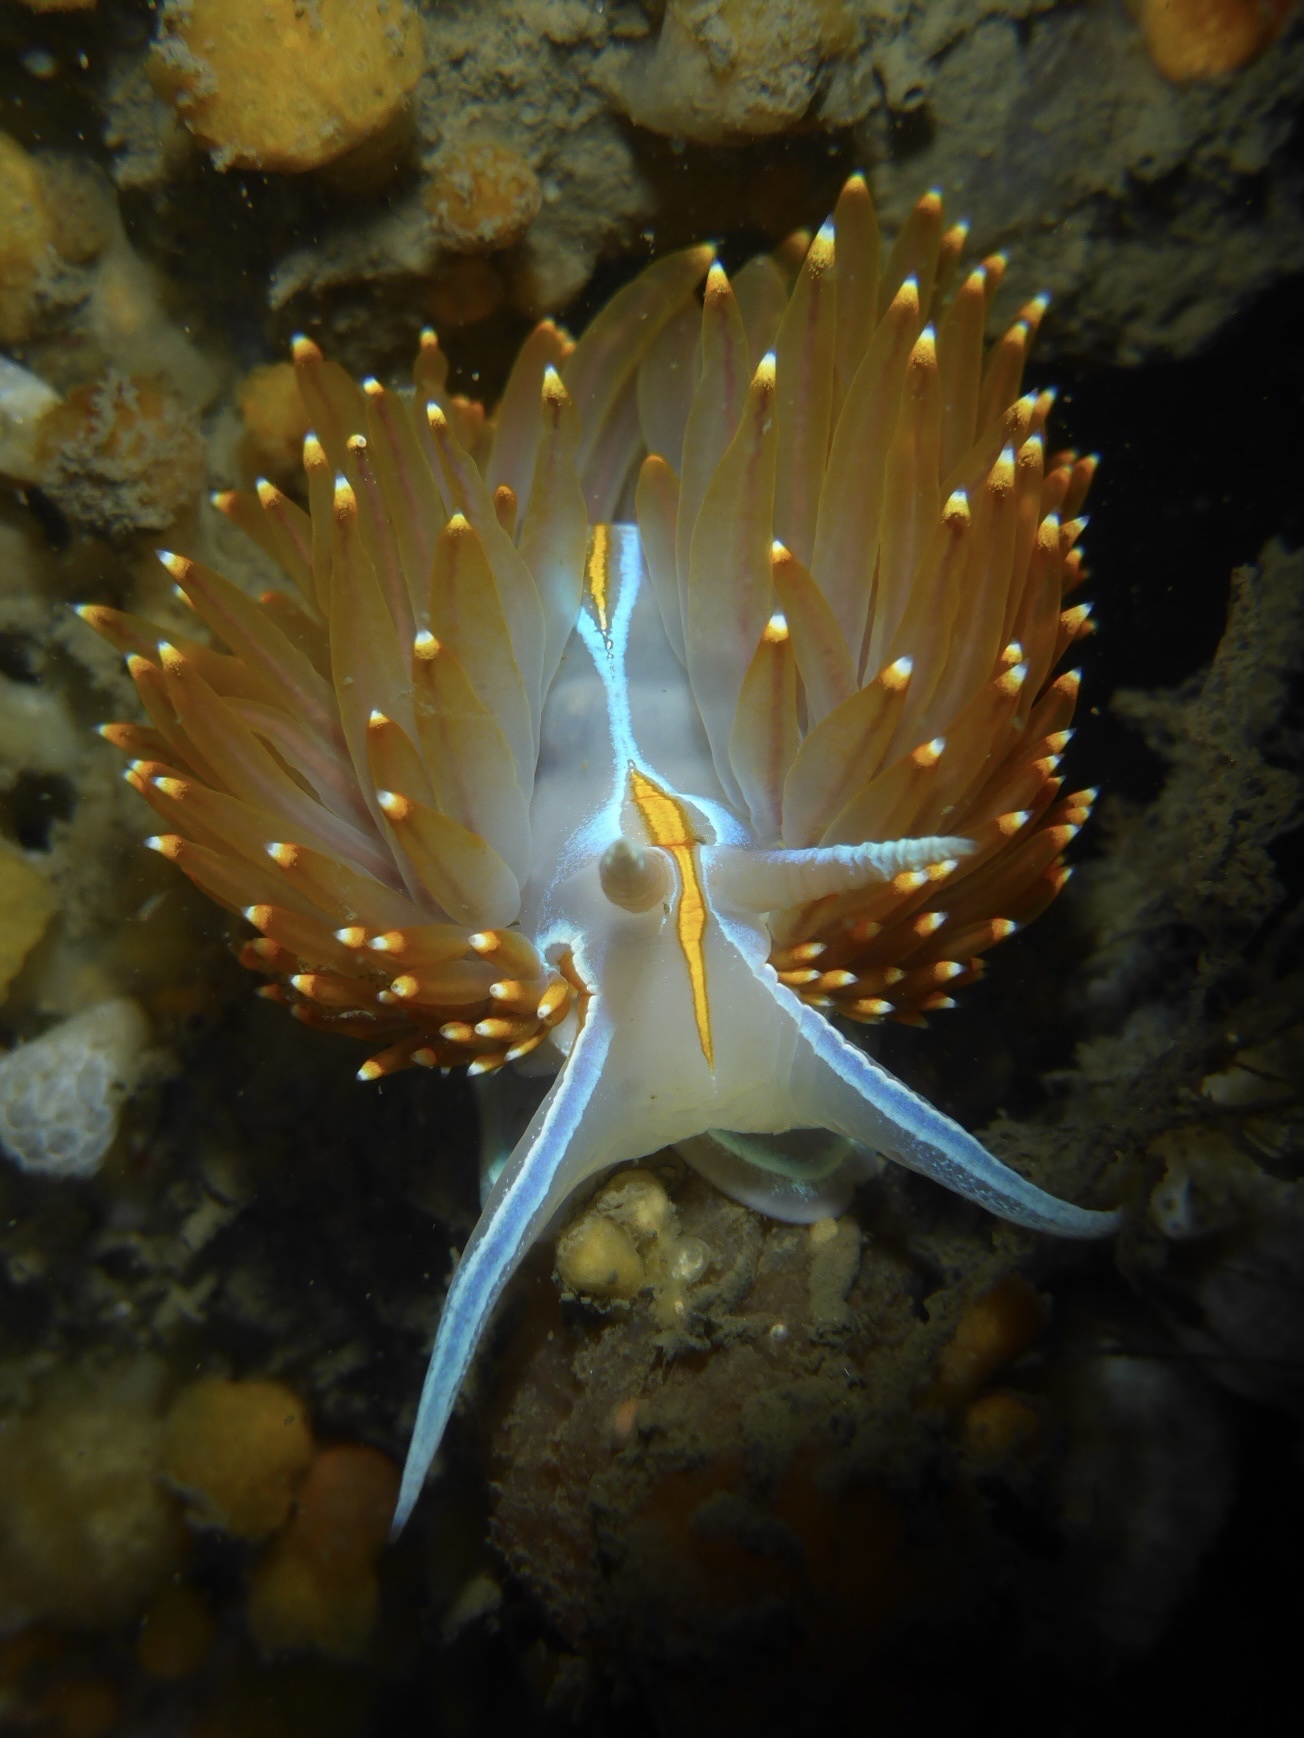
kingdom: Animalia
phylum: Mollusca
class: Gastropoda
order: Nudibranchia
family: Myrrhinidae
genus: Hermissenda
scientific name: Hermissenda opalescens
